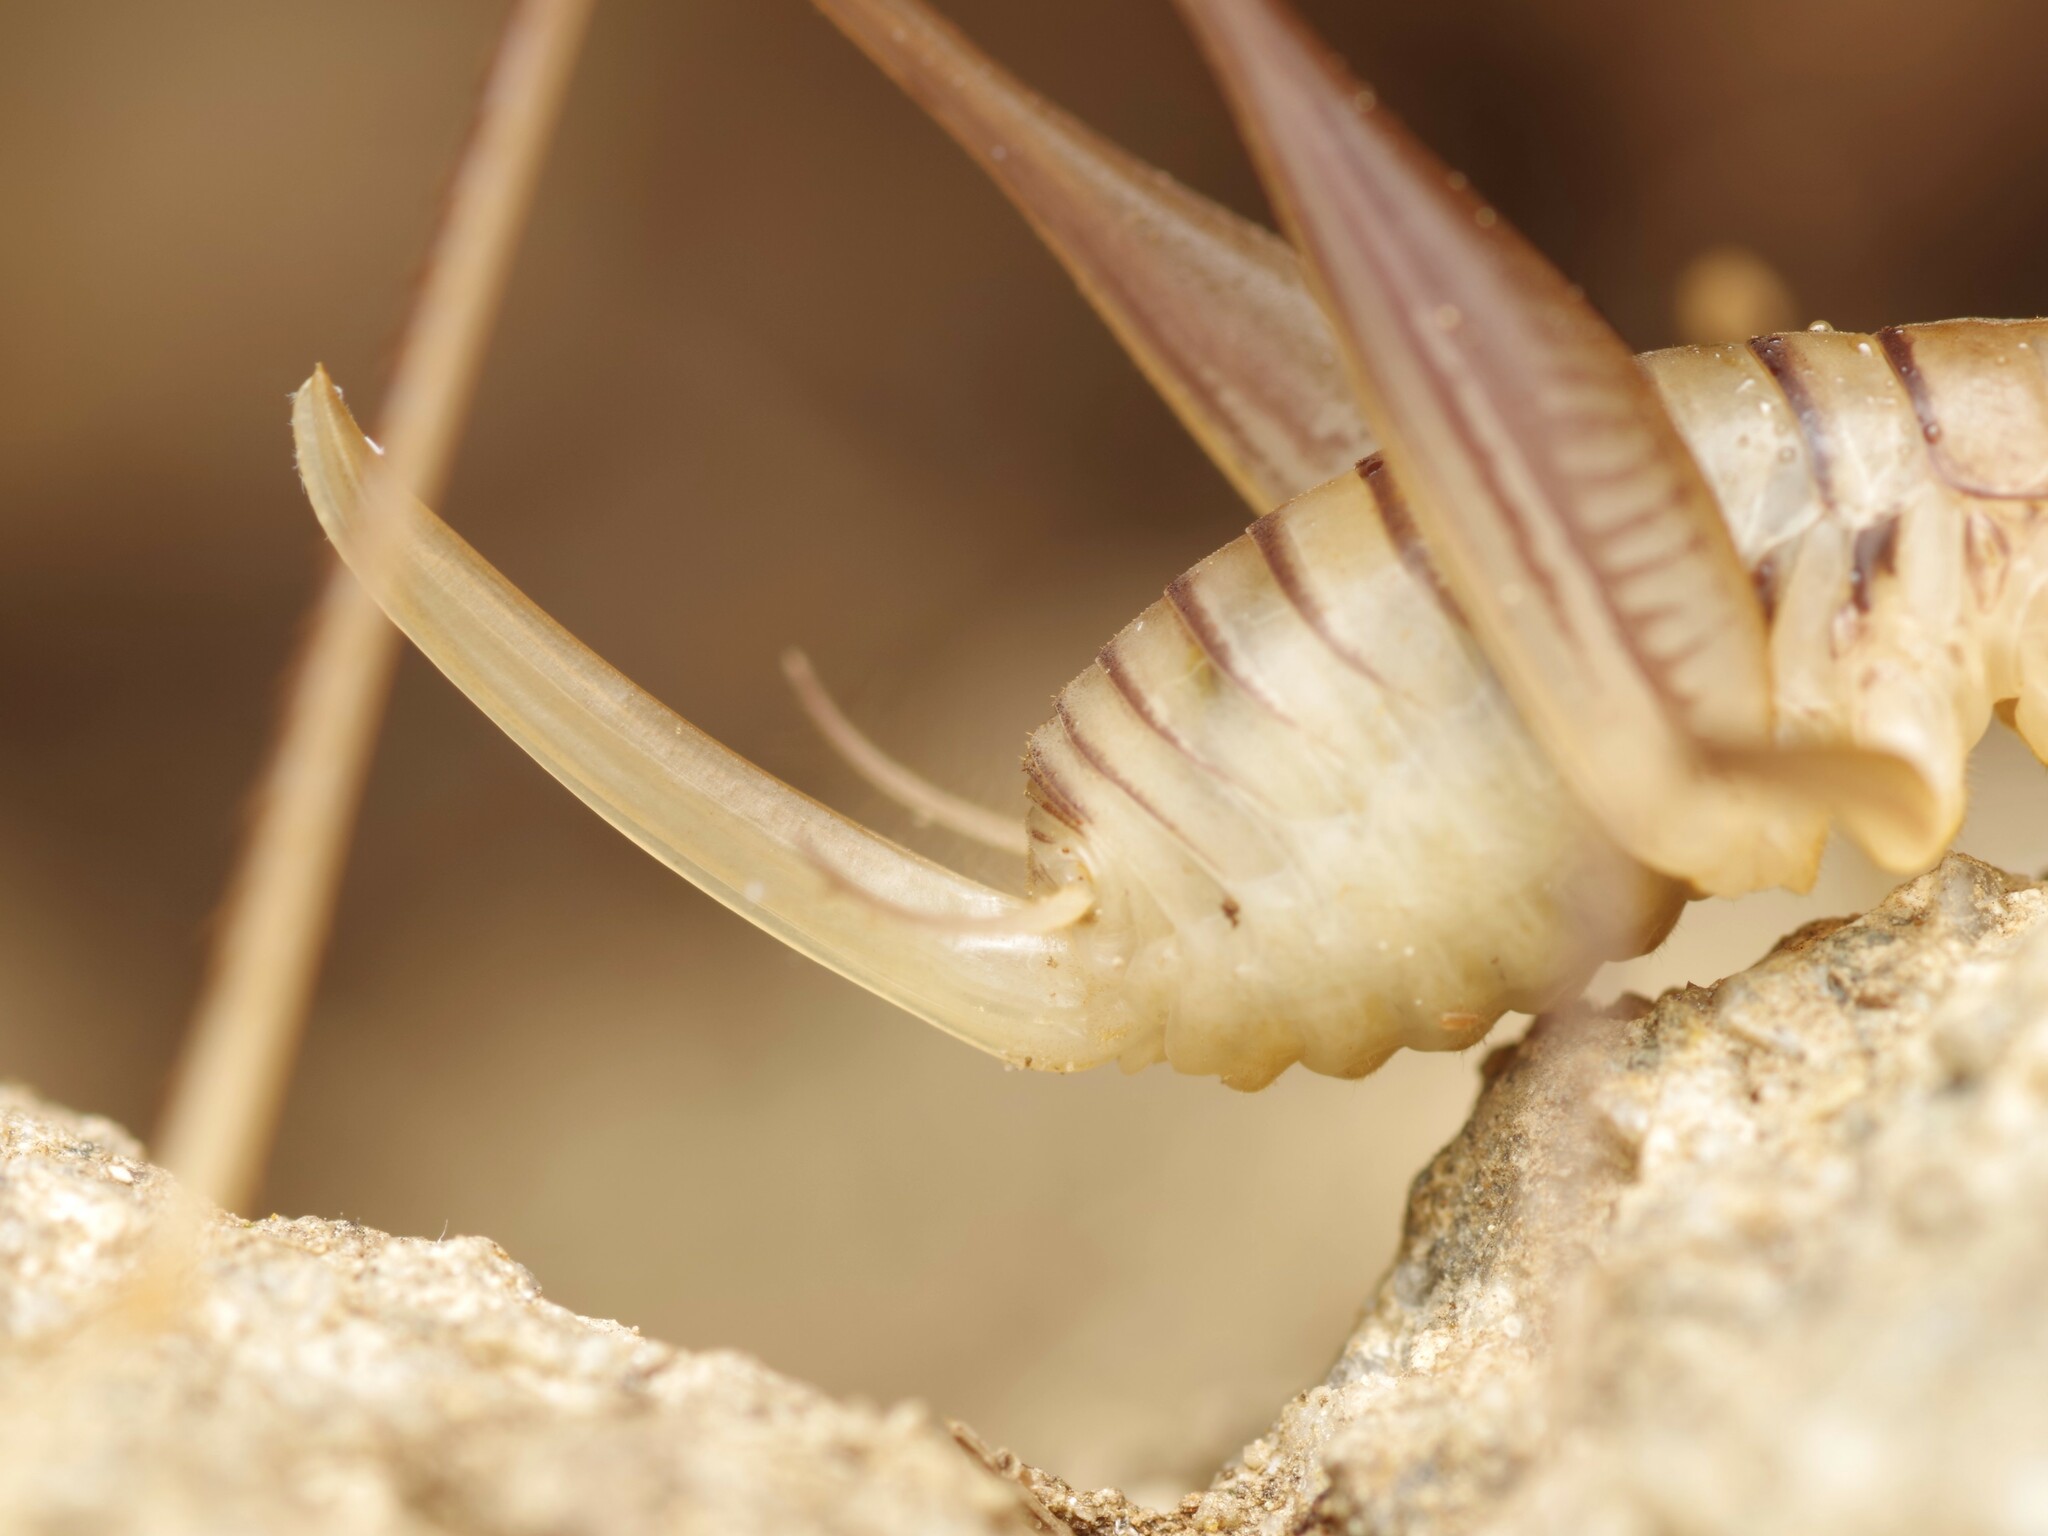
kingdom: Animalia
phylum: Arthropoda
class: Insecta
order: Orthoptera
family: Rhaphidophoridae
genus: Dolichopoda
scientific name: Dolichopoda linderii
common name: Languedoc cave-cricket
